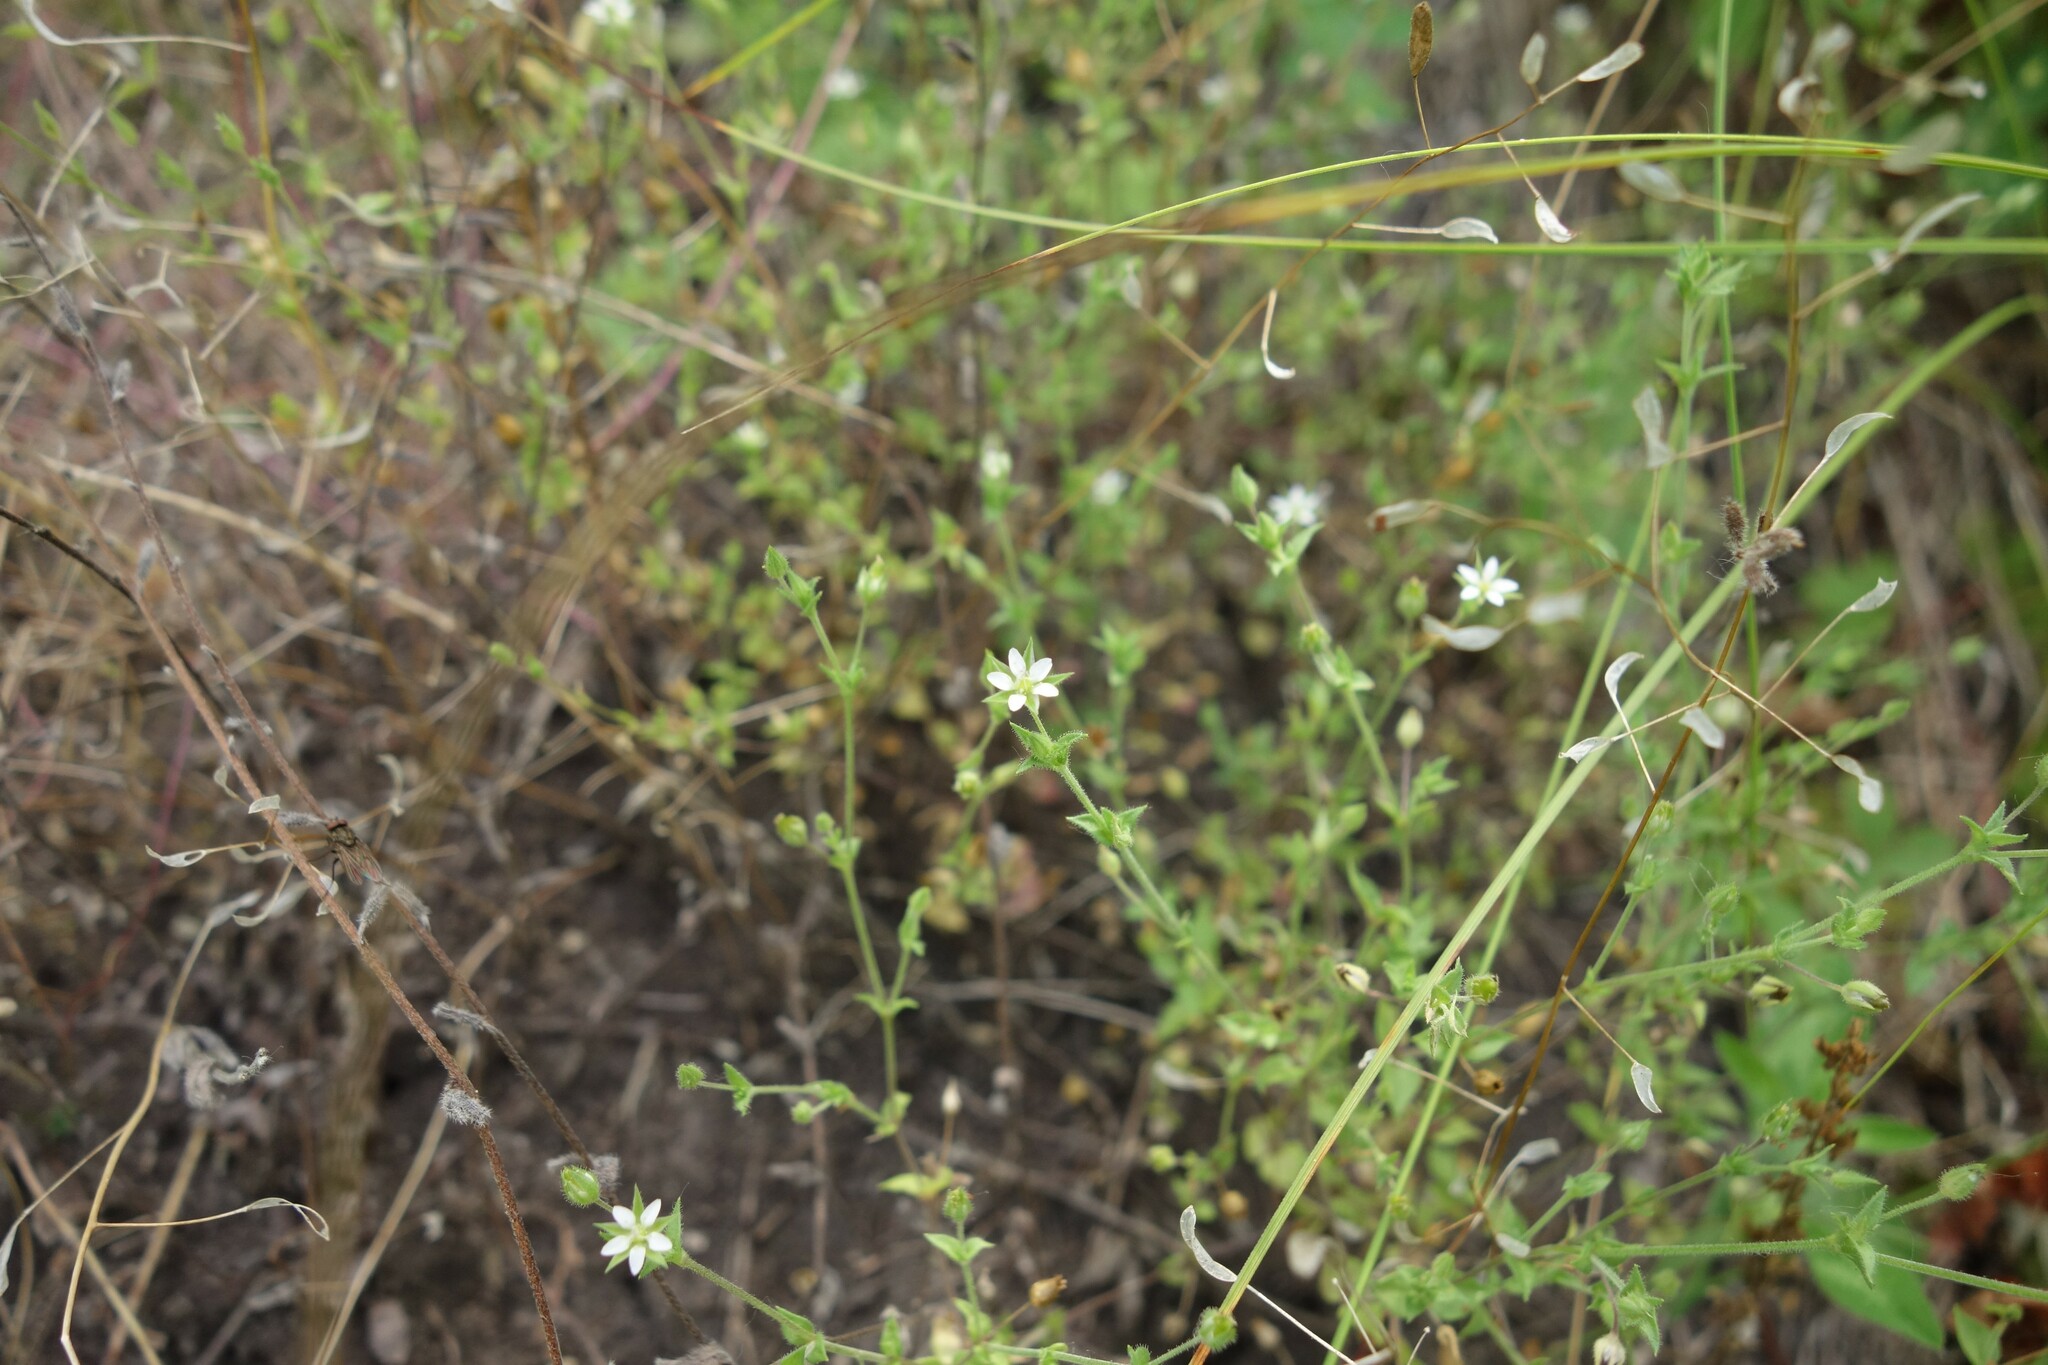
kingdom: Plantae
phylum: Tracheophyta
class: Magnoliopsida
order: Caryophyllales
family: Caryophyllaceae
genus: Arenaria
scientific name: Arenaria serpyllifolia
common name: Thyme-leaved sandwort
